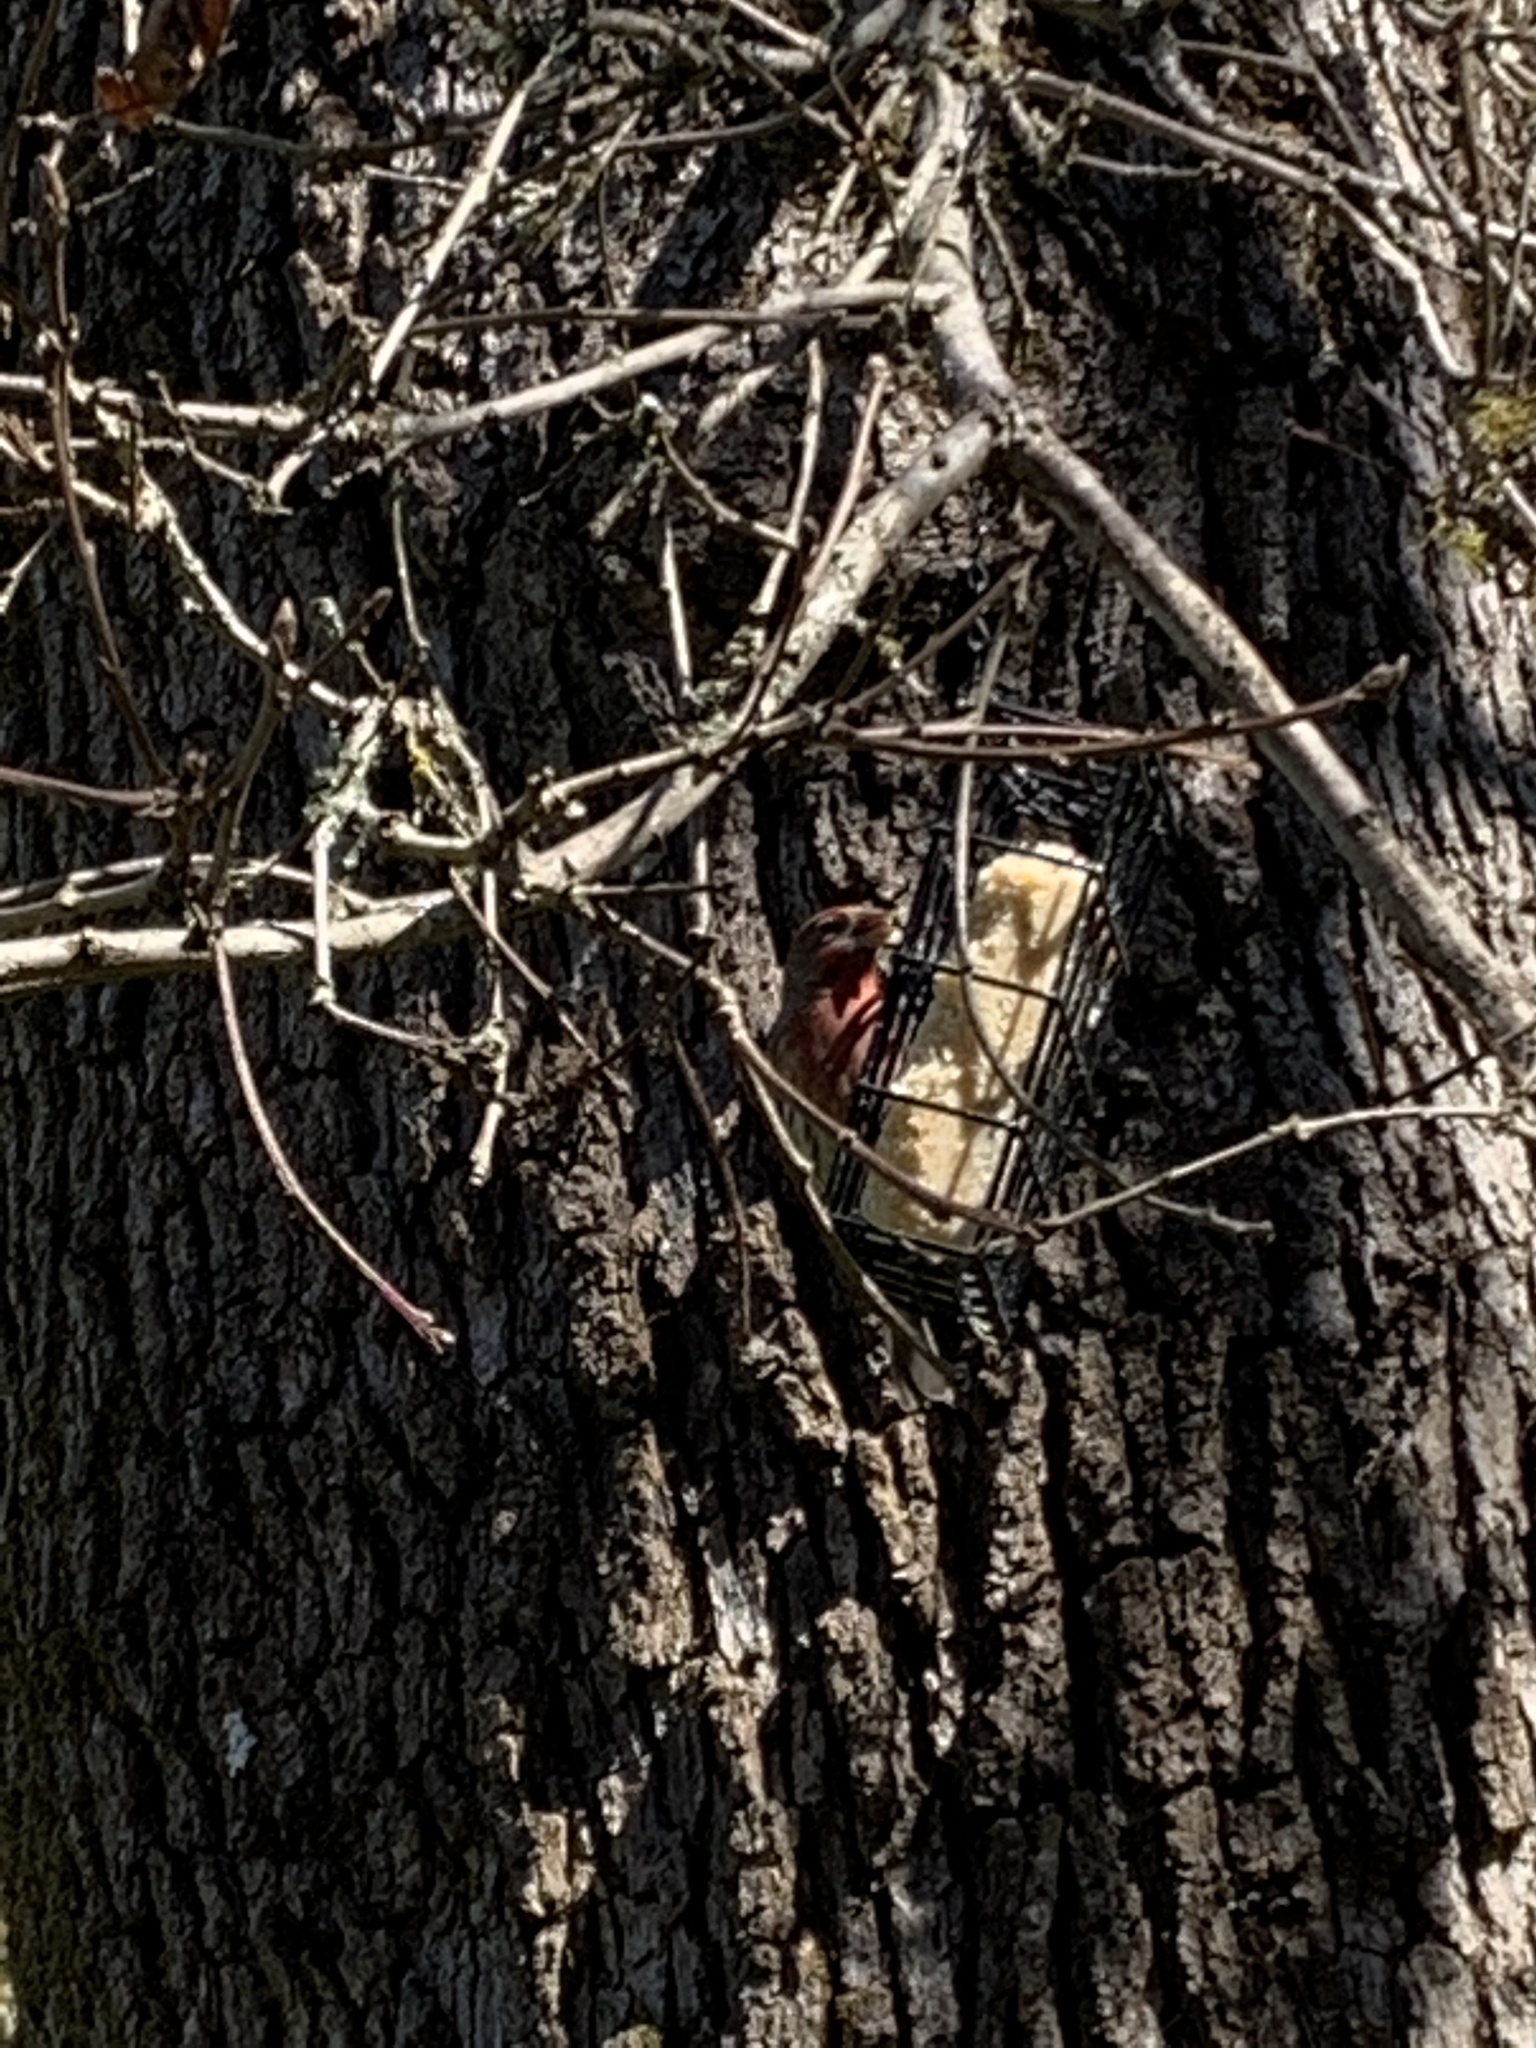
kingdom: Animalia
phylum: Chordata
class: Aves
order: Passeriformes
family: Fringillidae
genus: Haemorhous
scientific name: Haemorhous mexicanus
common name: House finch
